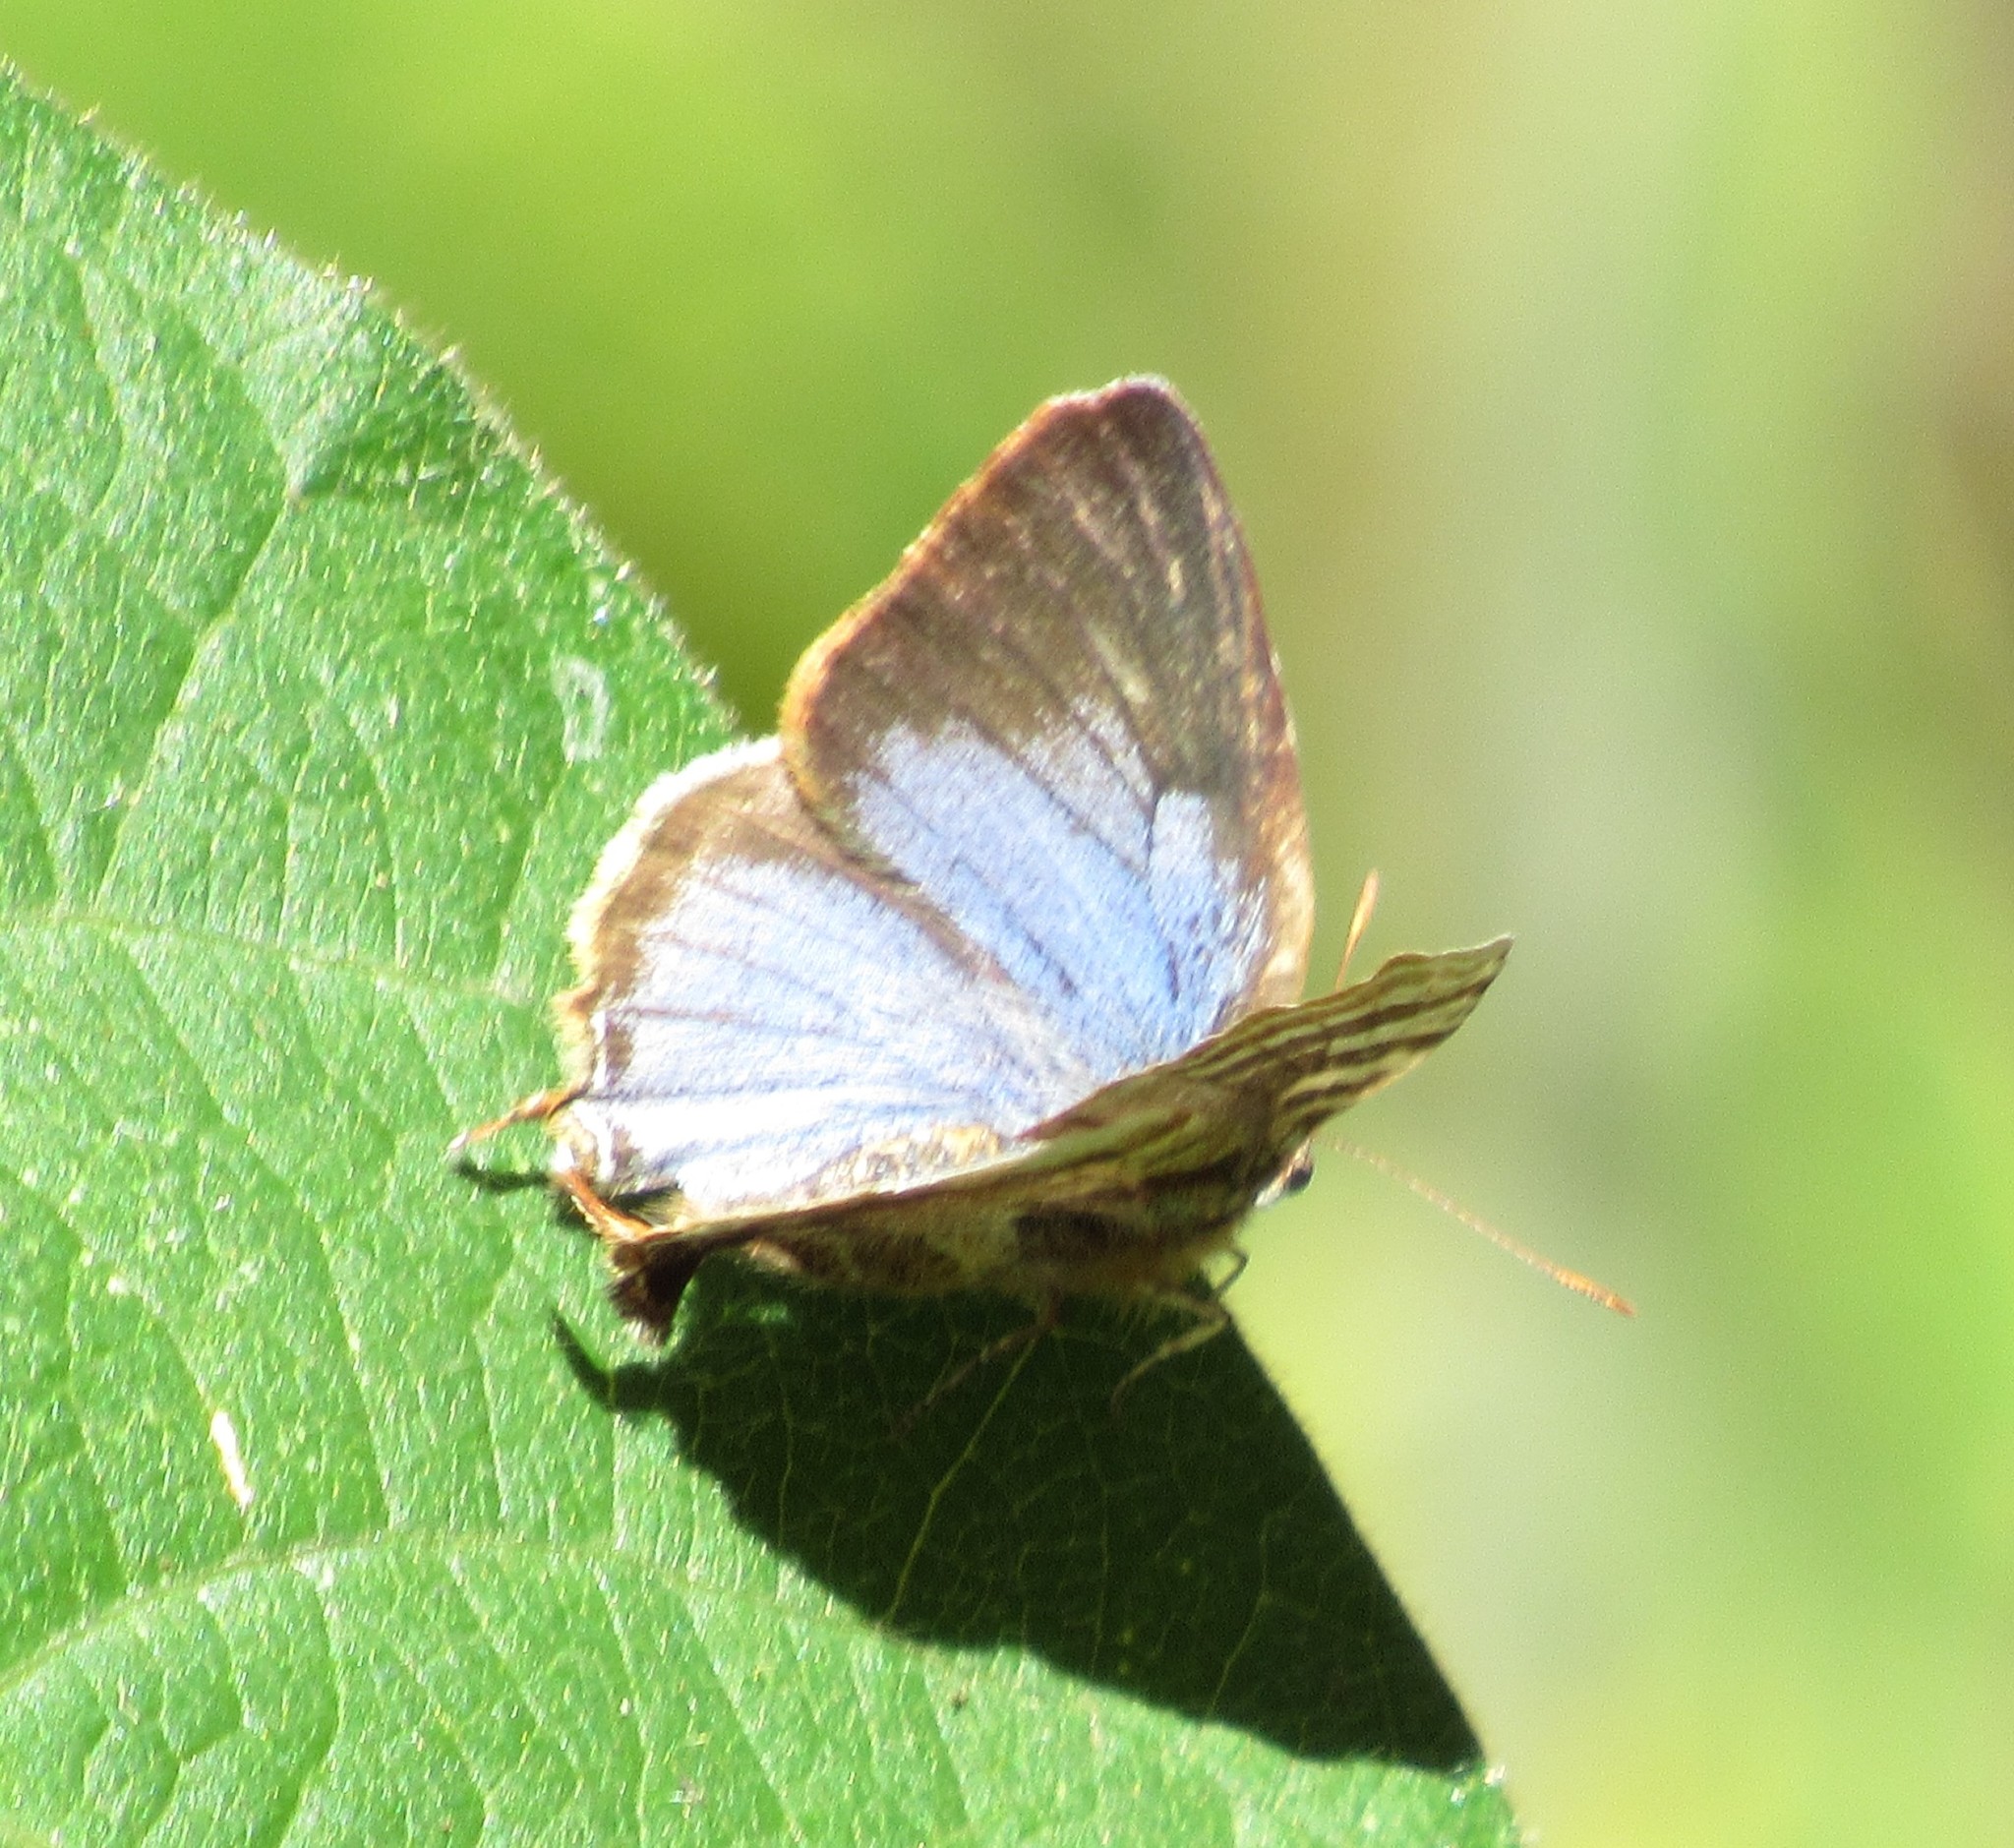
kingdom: Animalia
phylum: Arthropoda
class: Insecta
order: Lepidoptera
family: Lycaenidae
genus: Arawacus
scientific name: Arawacus ellida
